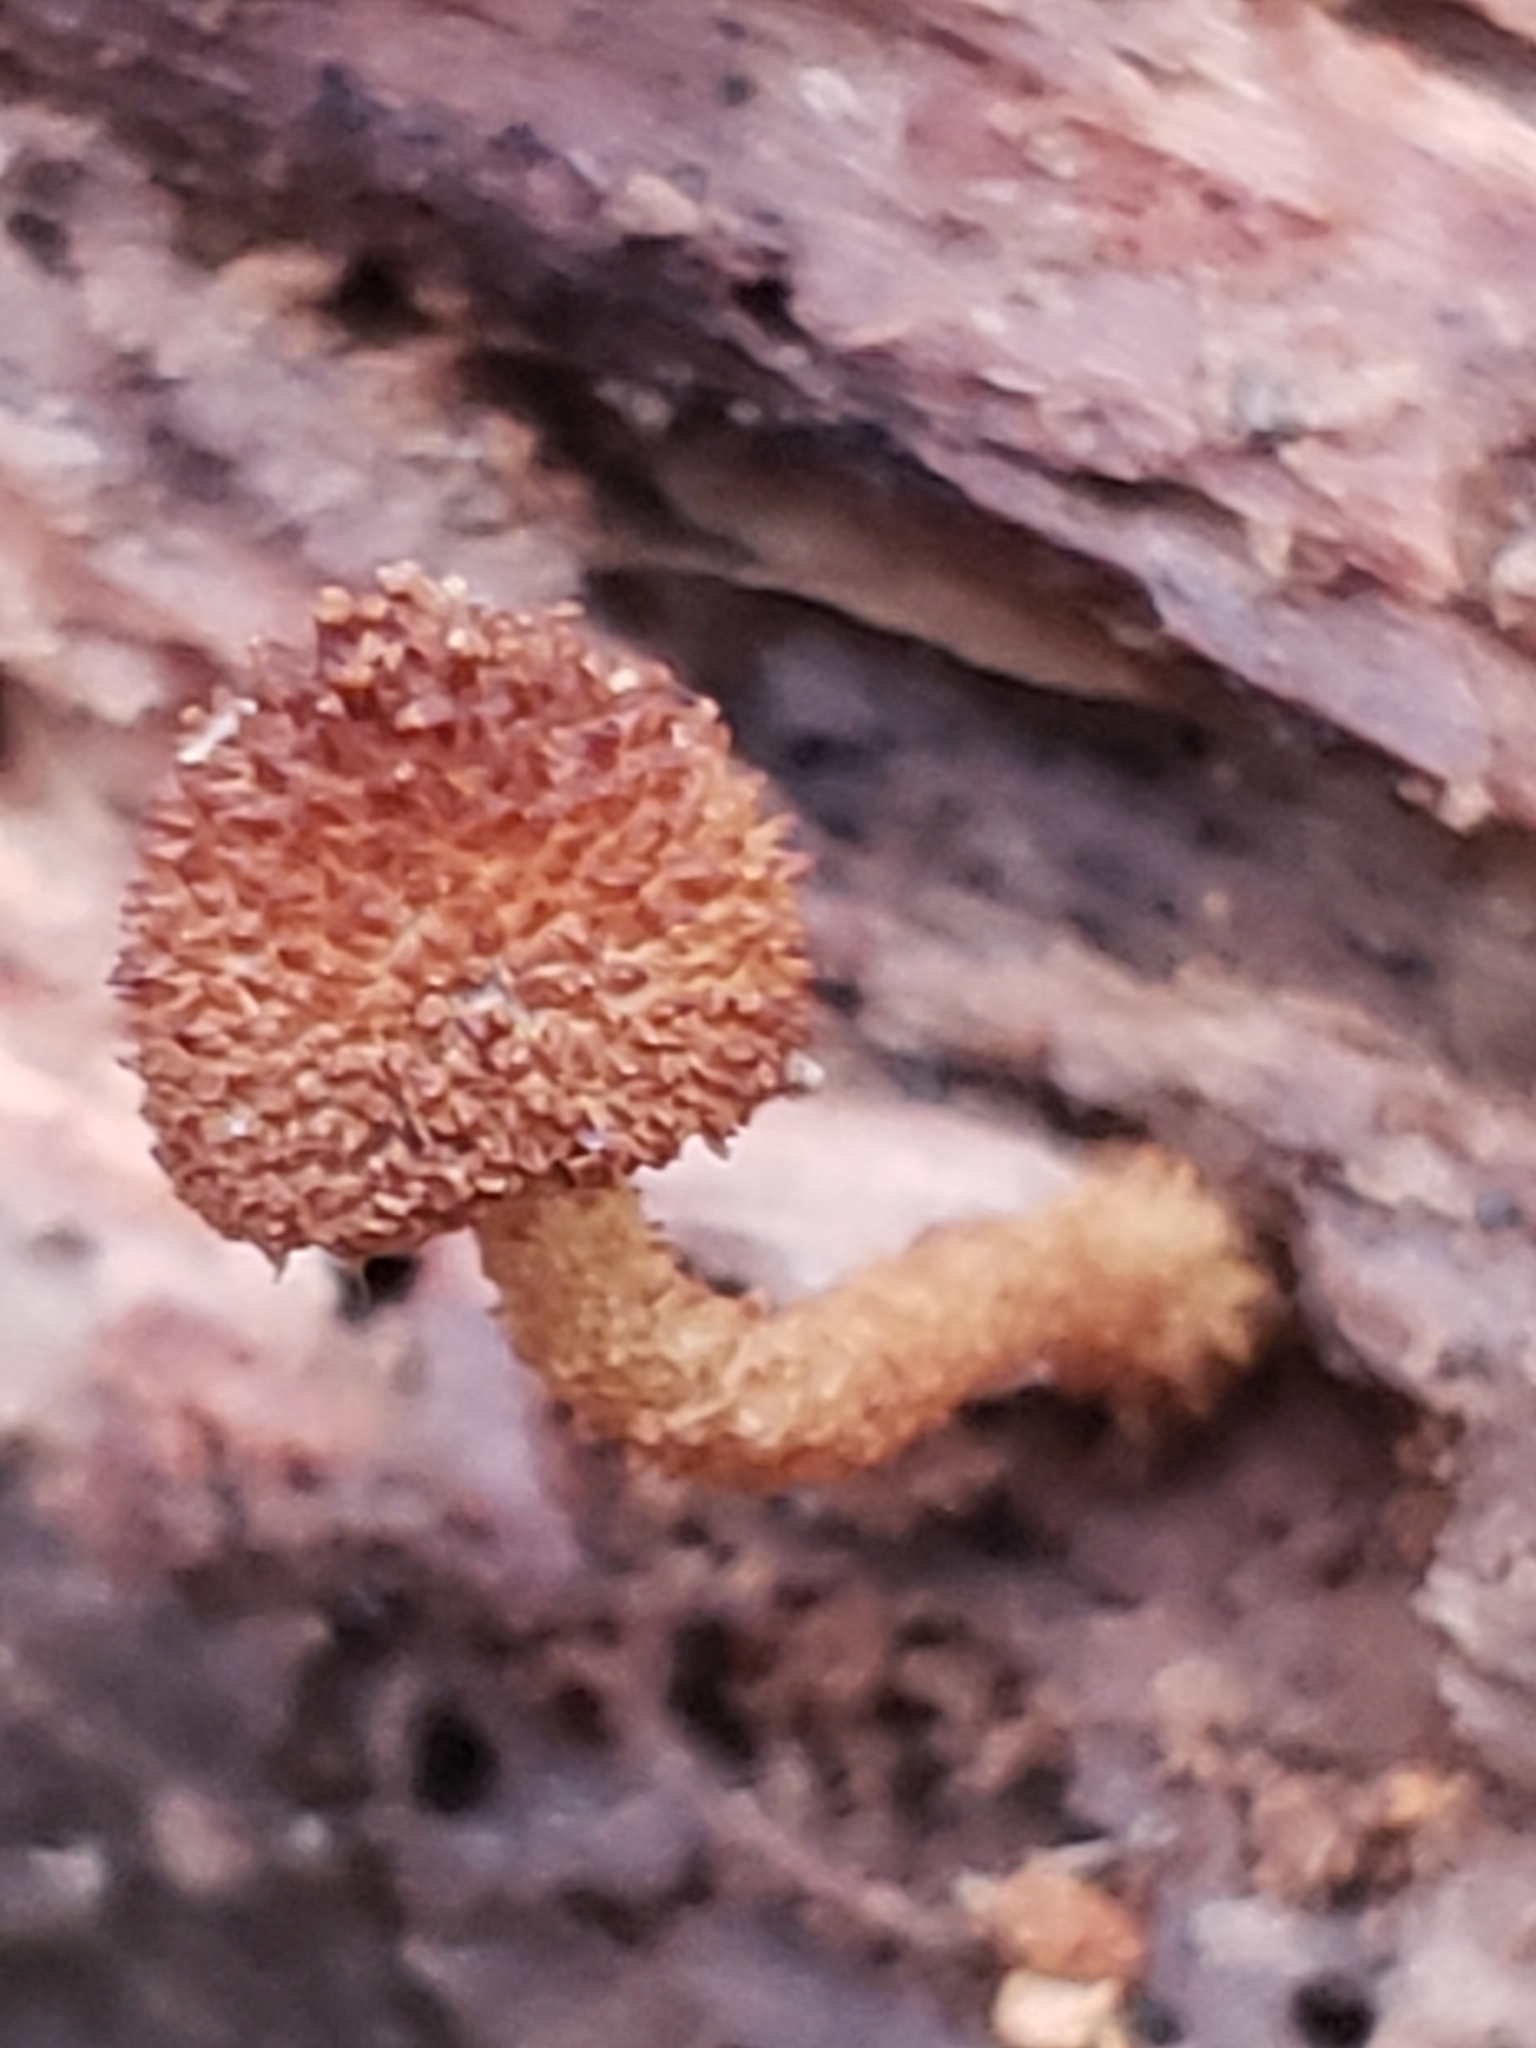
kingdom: Fungi
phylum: Basidiomycota
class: Agaricomycetes
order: Agaricales
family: Tubariaceae
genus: Flammulaster
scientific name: Flammulaster erinaceellus
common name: Powder-scale pholiota
